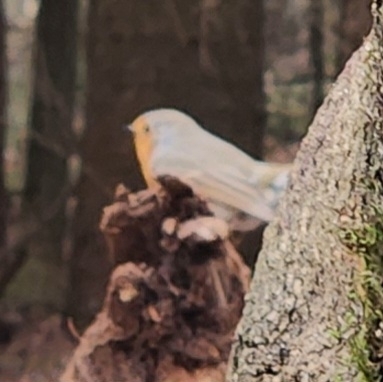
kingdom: Animalia
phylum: Chordata
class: Aves
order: Passeriformes
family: Muscicapidae
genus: Erithacus
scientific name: Erithacus rubecula
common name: European robin
